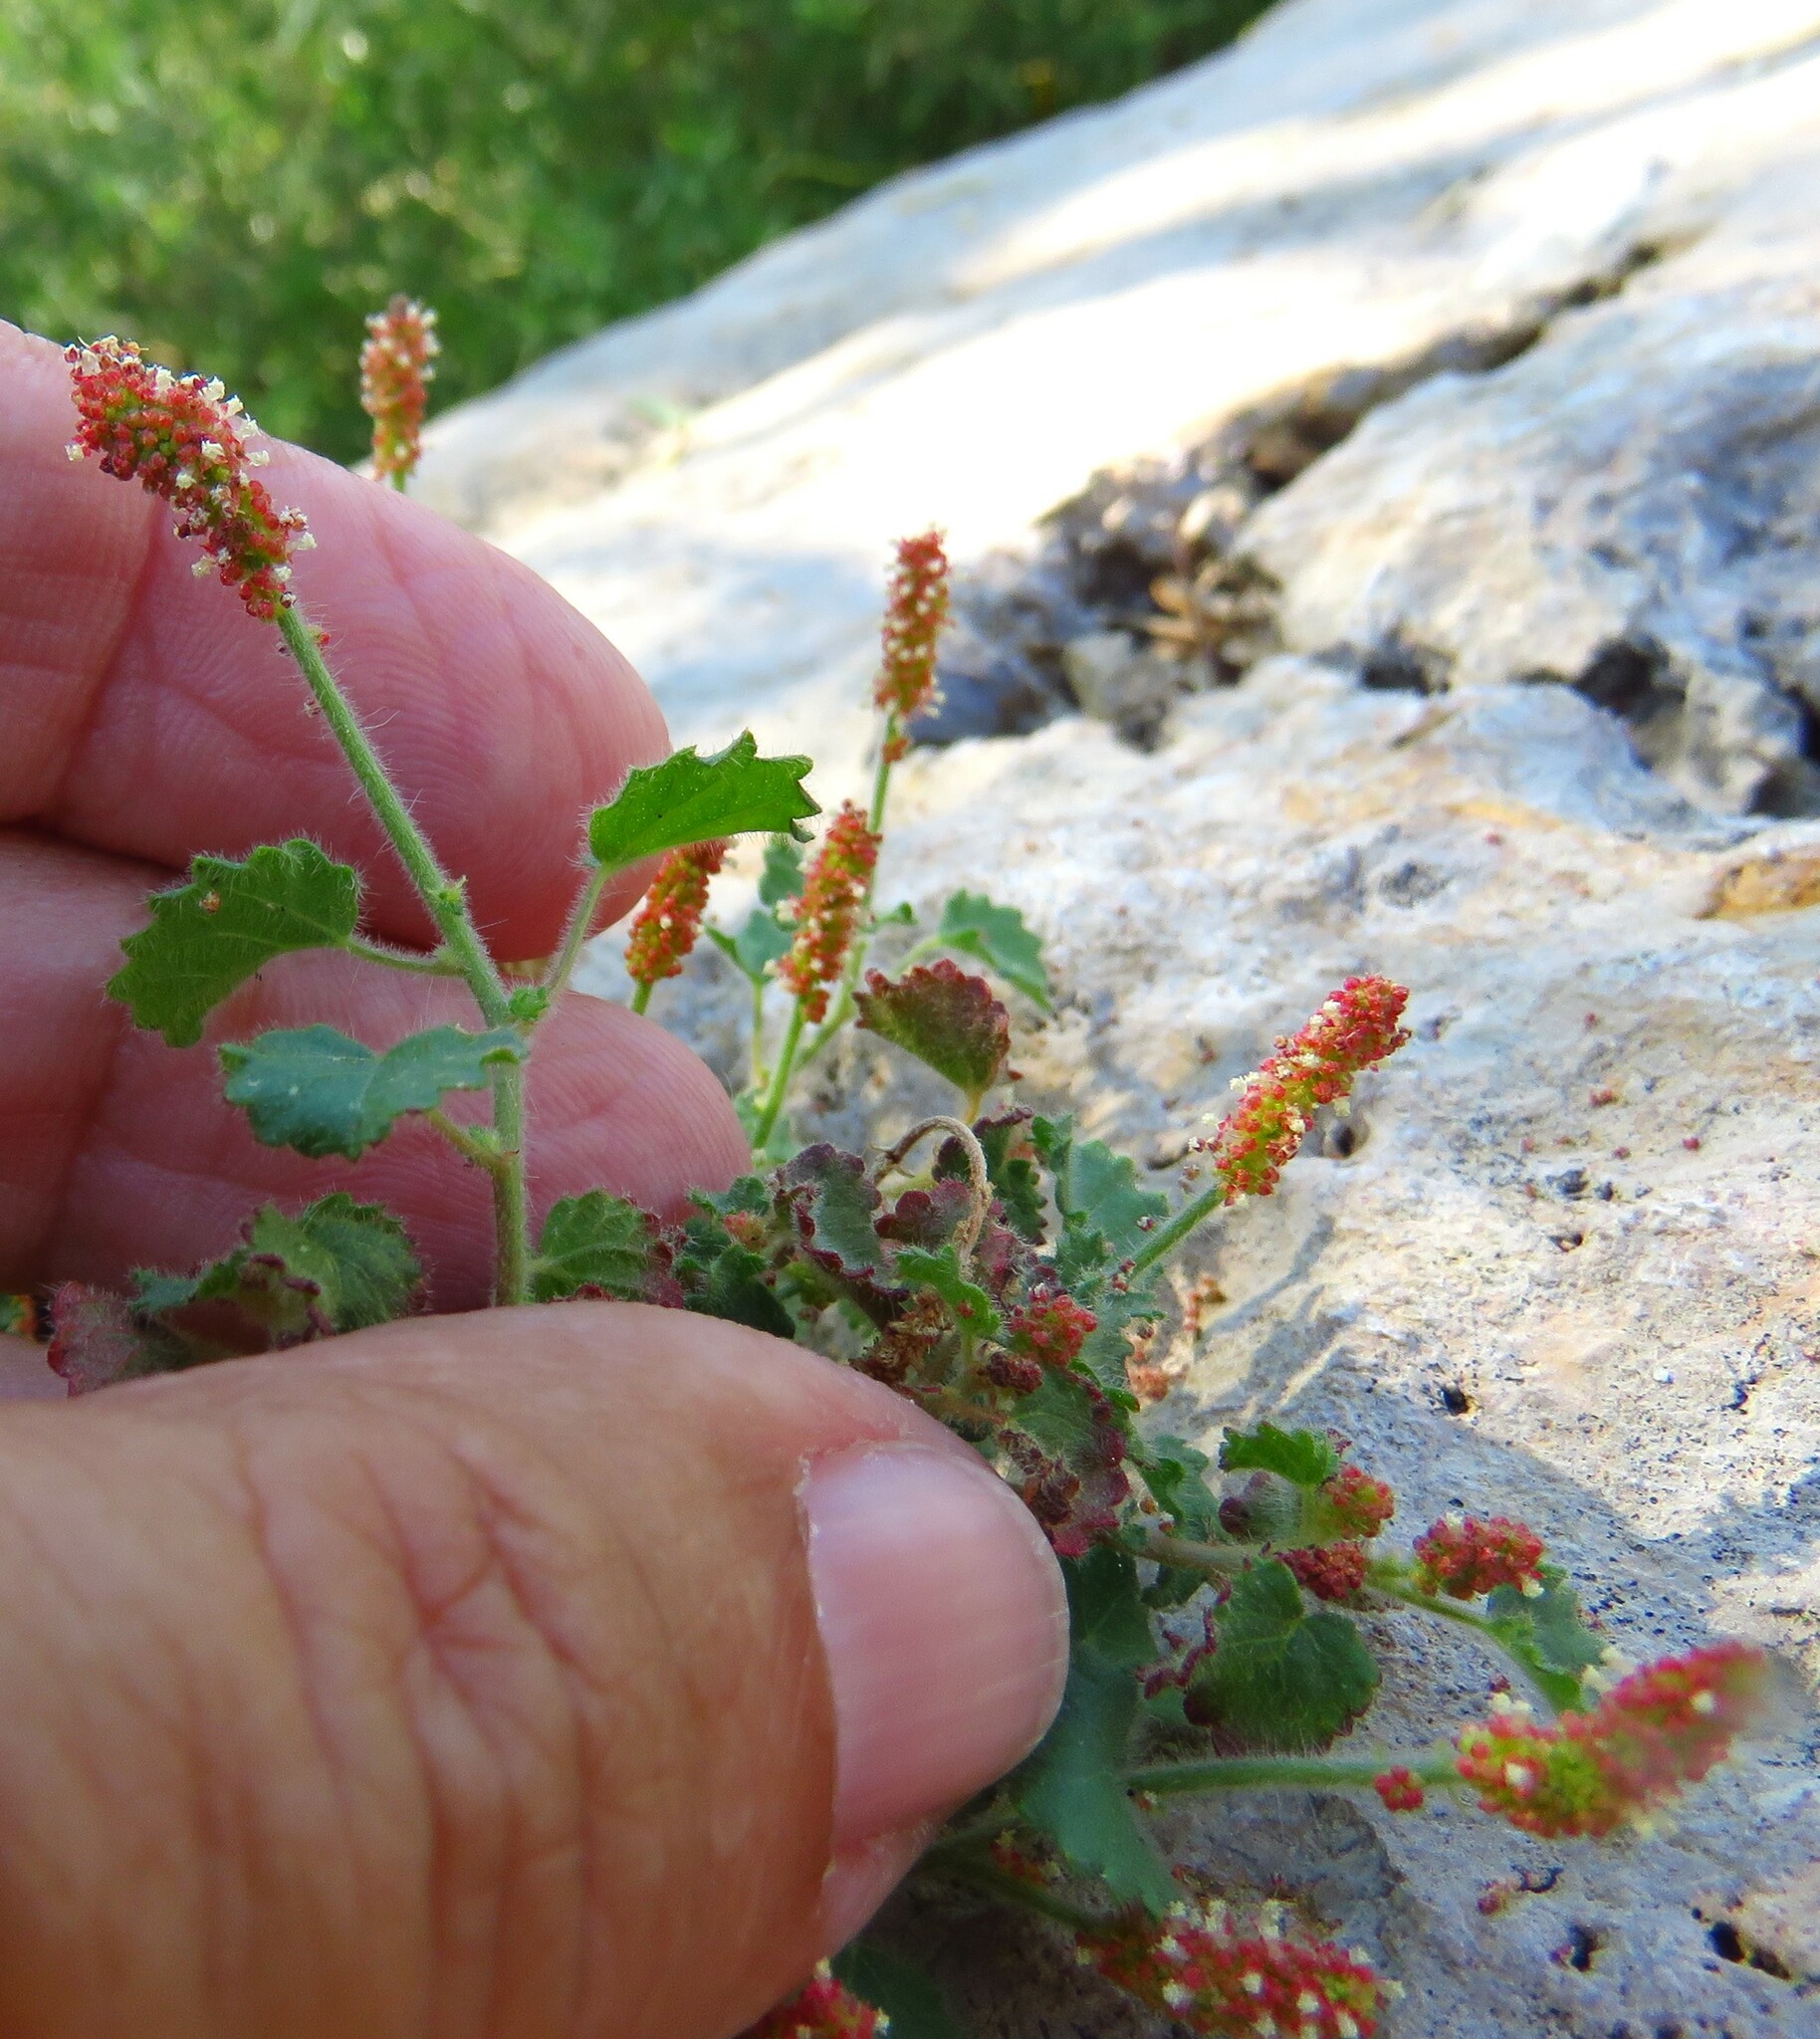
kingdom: Plantae
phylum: Tracheophyta
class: Magnoliopsida
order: Malpighiales
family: Euphorbiaceae
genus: Acalypha
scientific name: Acalypha monostachya
